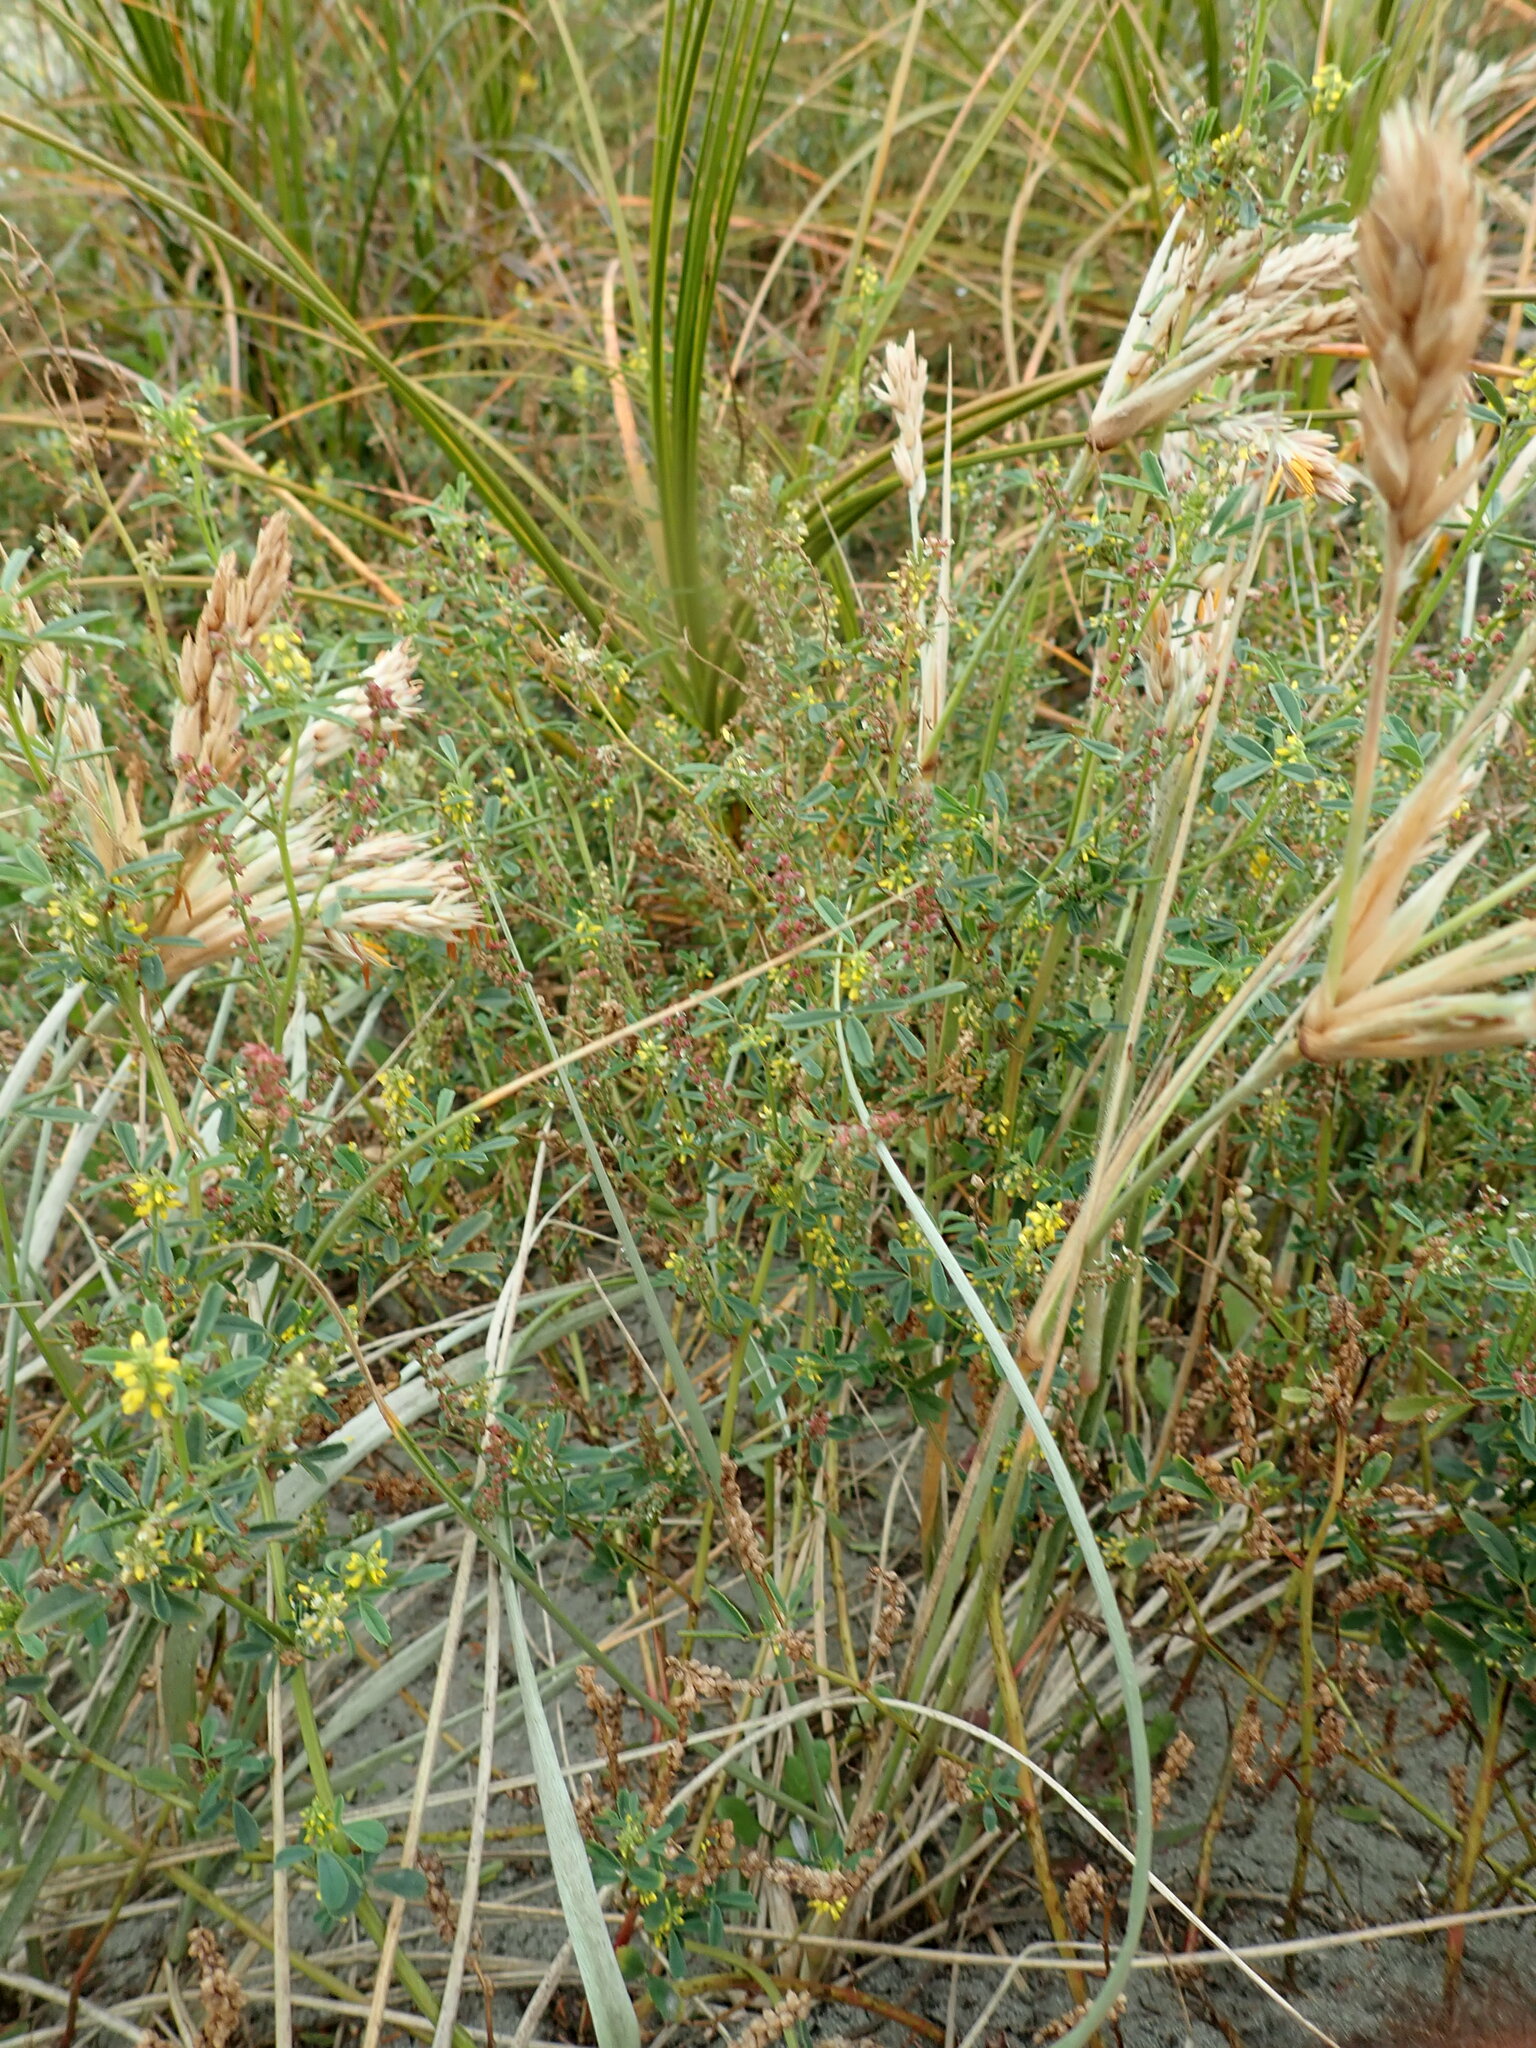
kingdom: Plantae
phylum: Tracheophyta
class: Magnoliopsida
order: Fabales
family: Fabaceae
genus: Melilotus
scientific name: Melilotus indicus
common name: Small melilot
